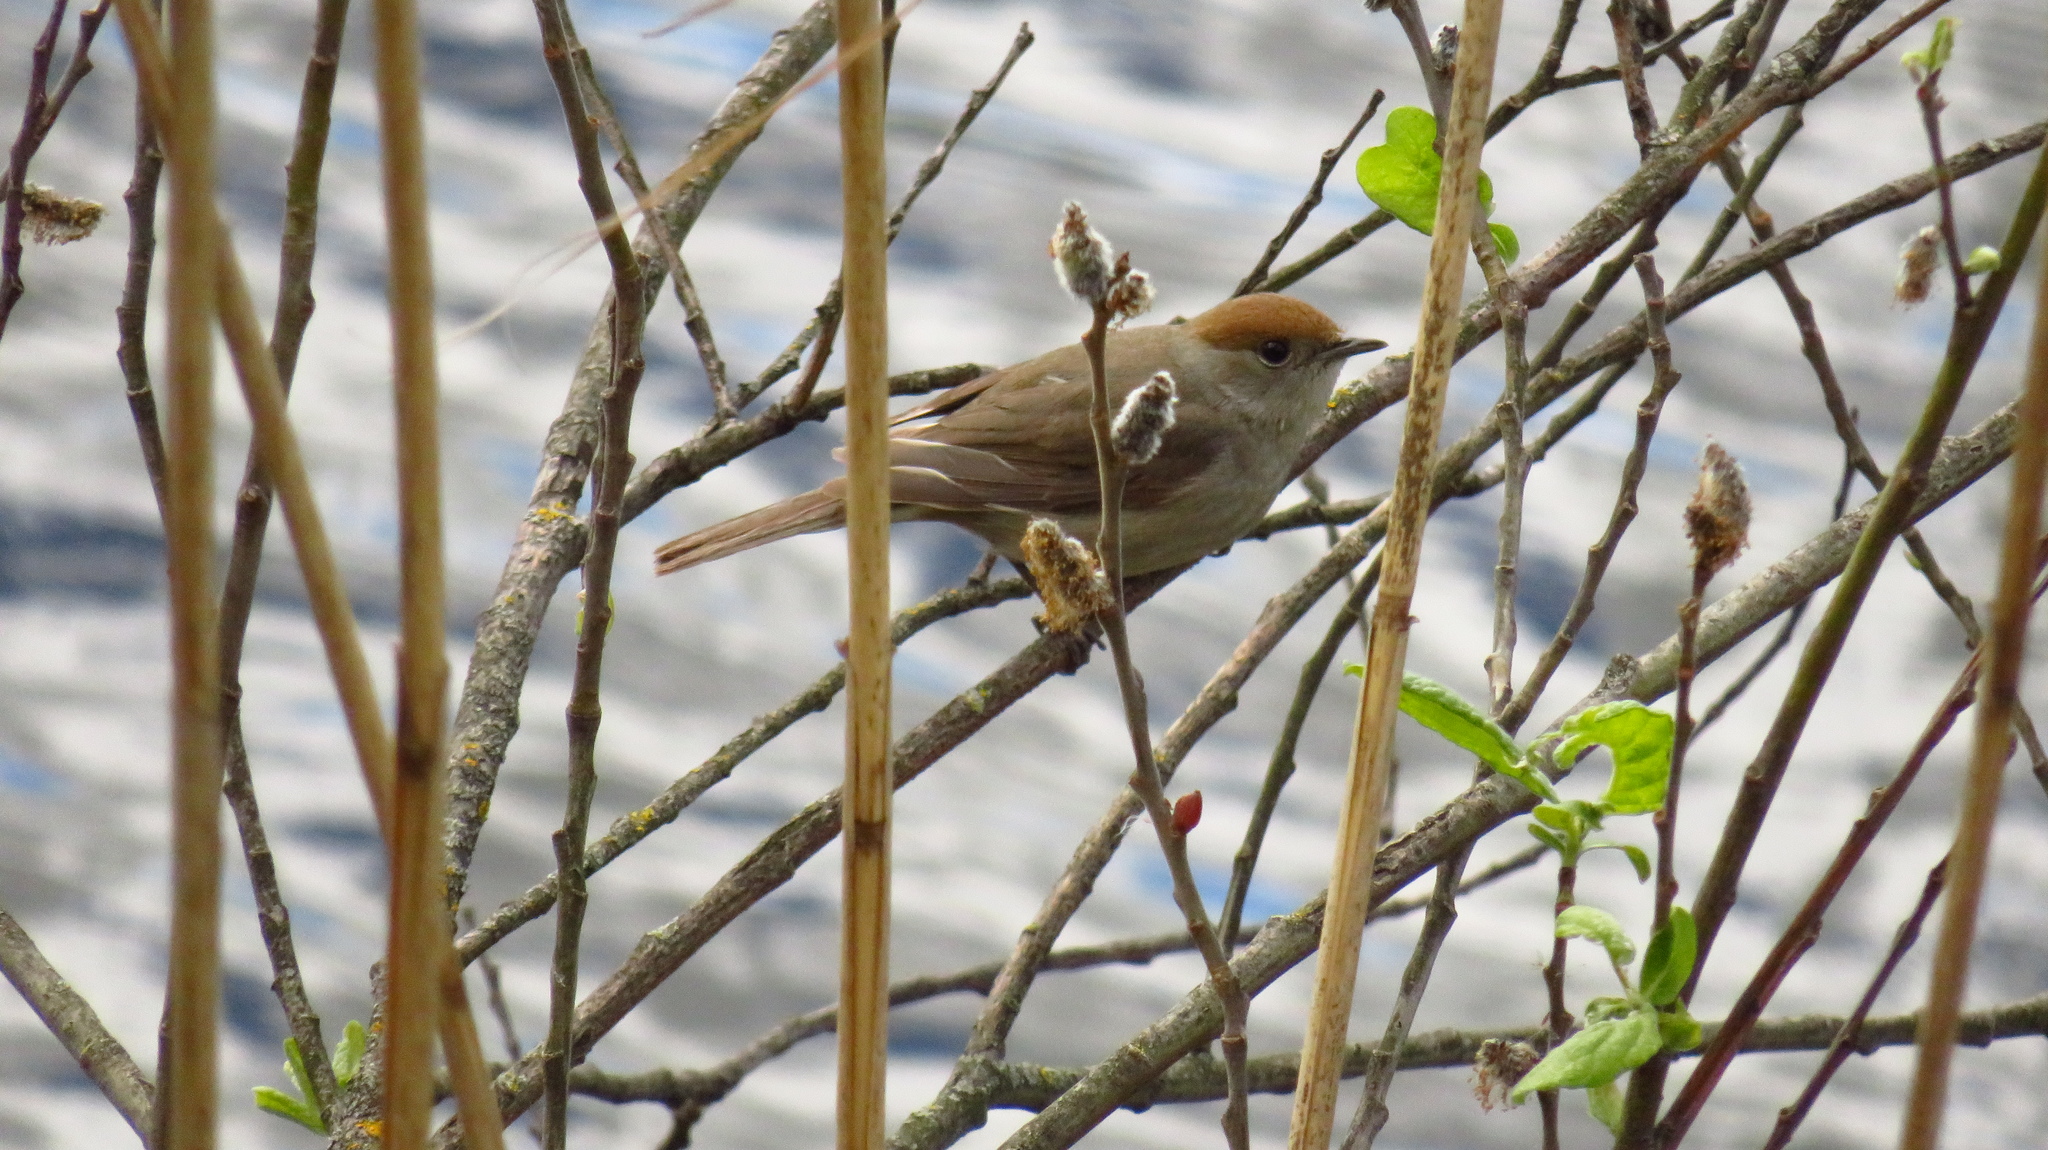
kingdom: Animalia
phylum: Chordata
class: Aves
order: Passeriformes
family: Sylviidae
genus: Sylvia
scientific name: Sylvia atricapilla
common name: Eurasian blackcap
